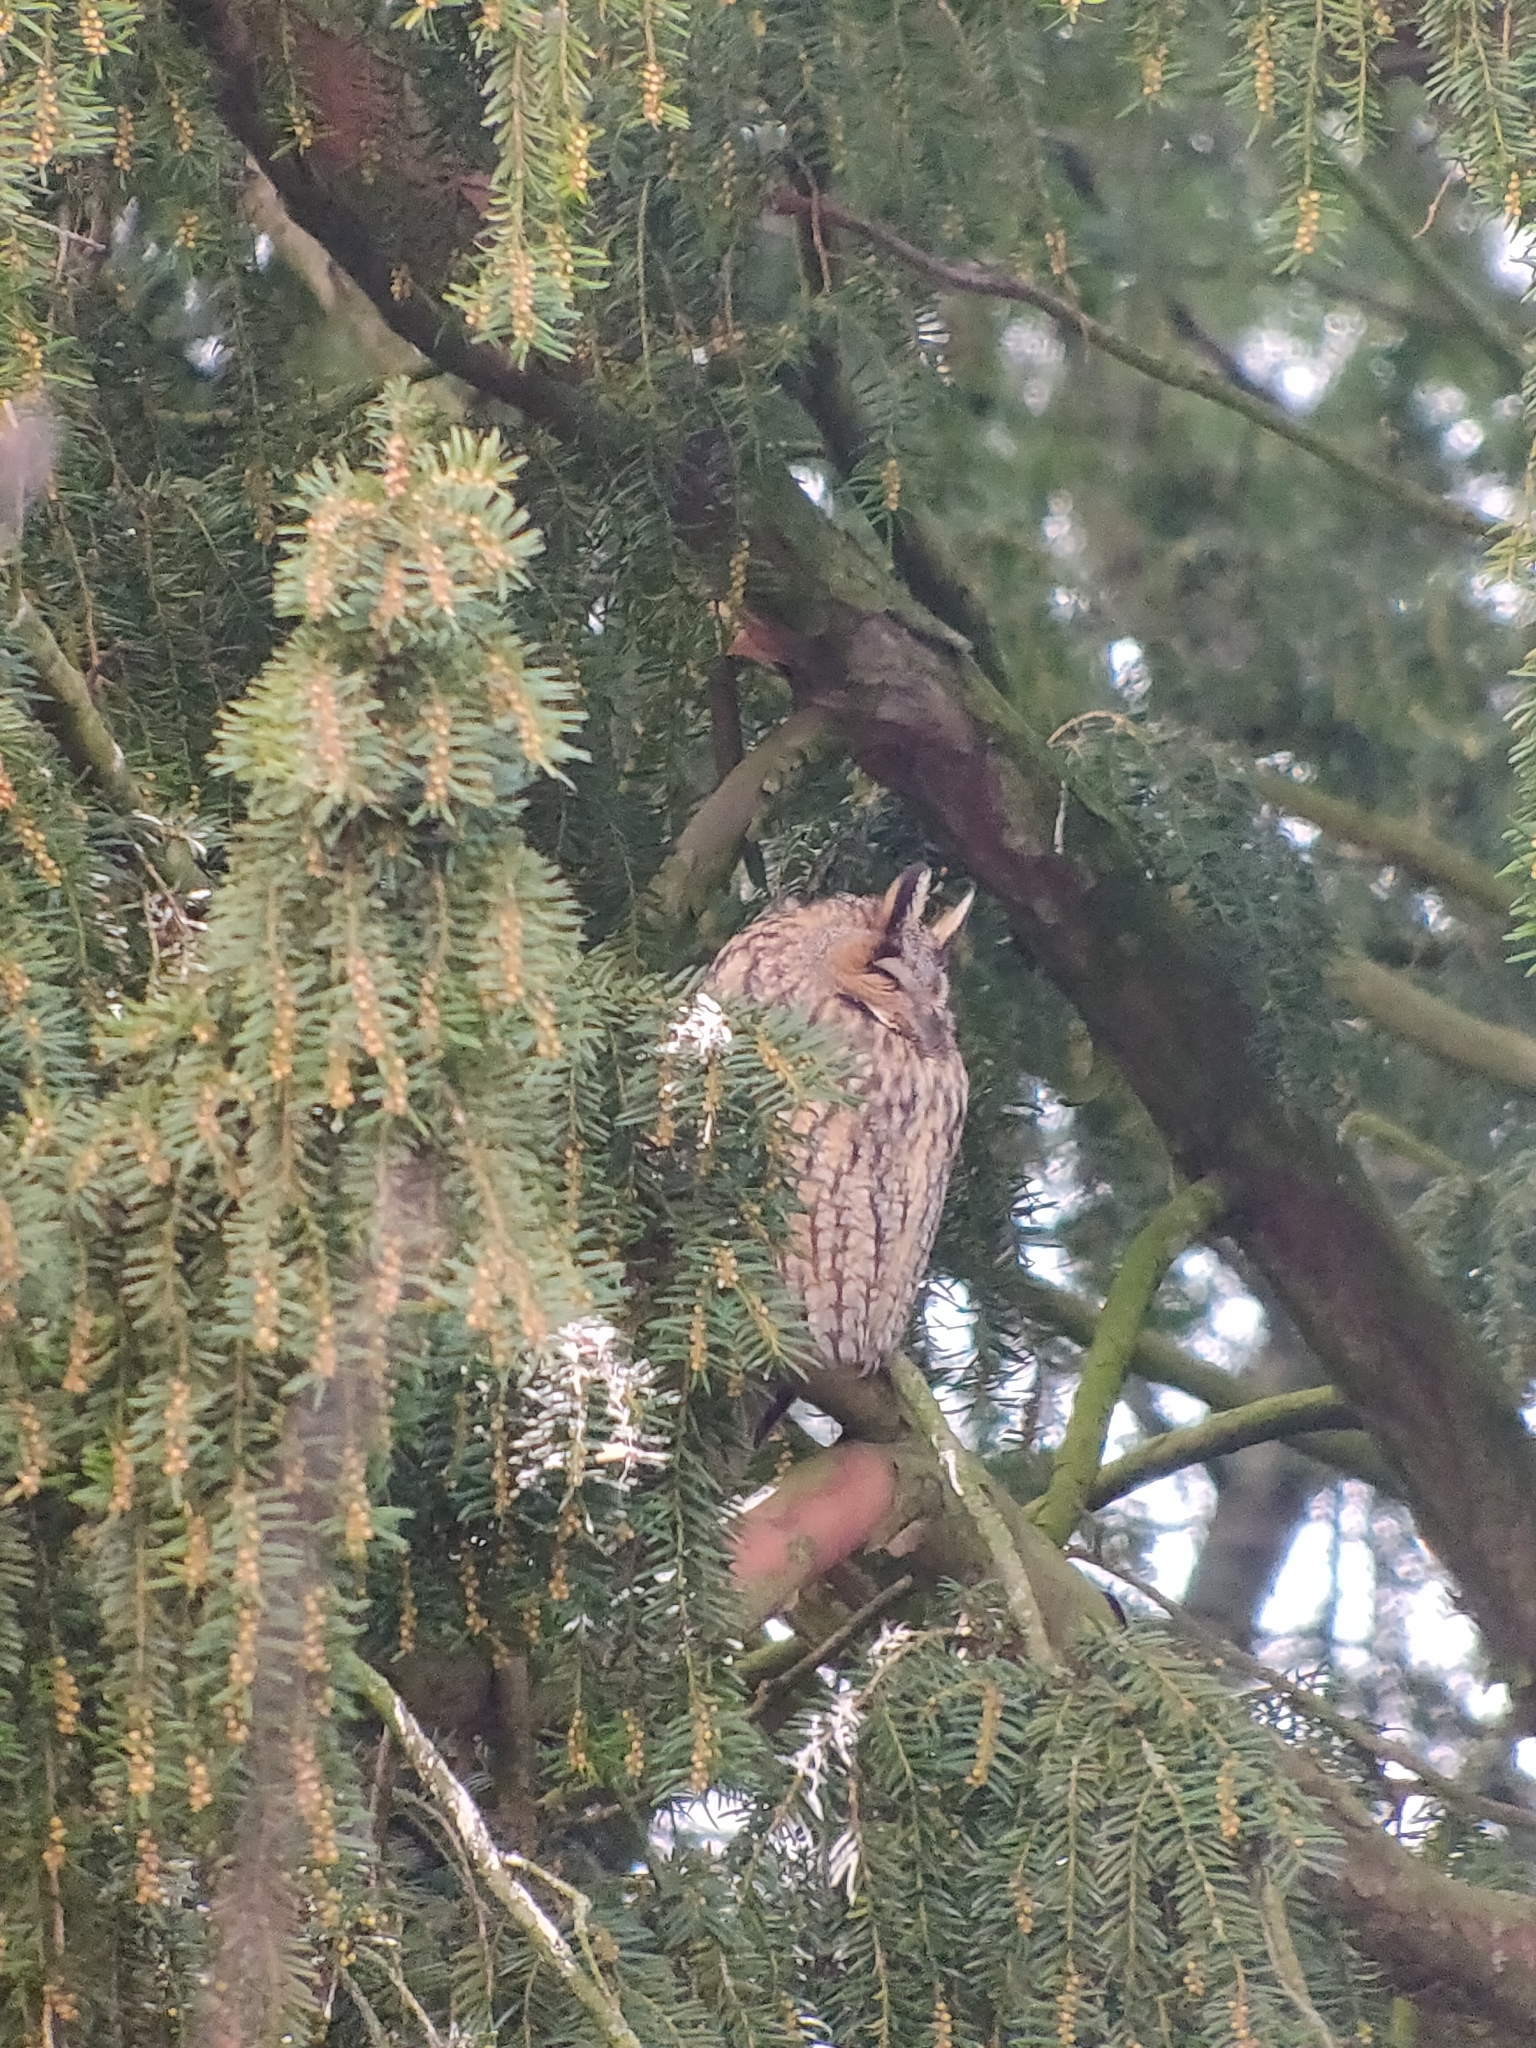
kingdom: Animalia
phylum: Chordata
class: Aves
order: Strigiformes
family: Strigidae
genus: Asio
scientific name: Asio otus
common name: Long-eared owl
